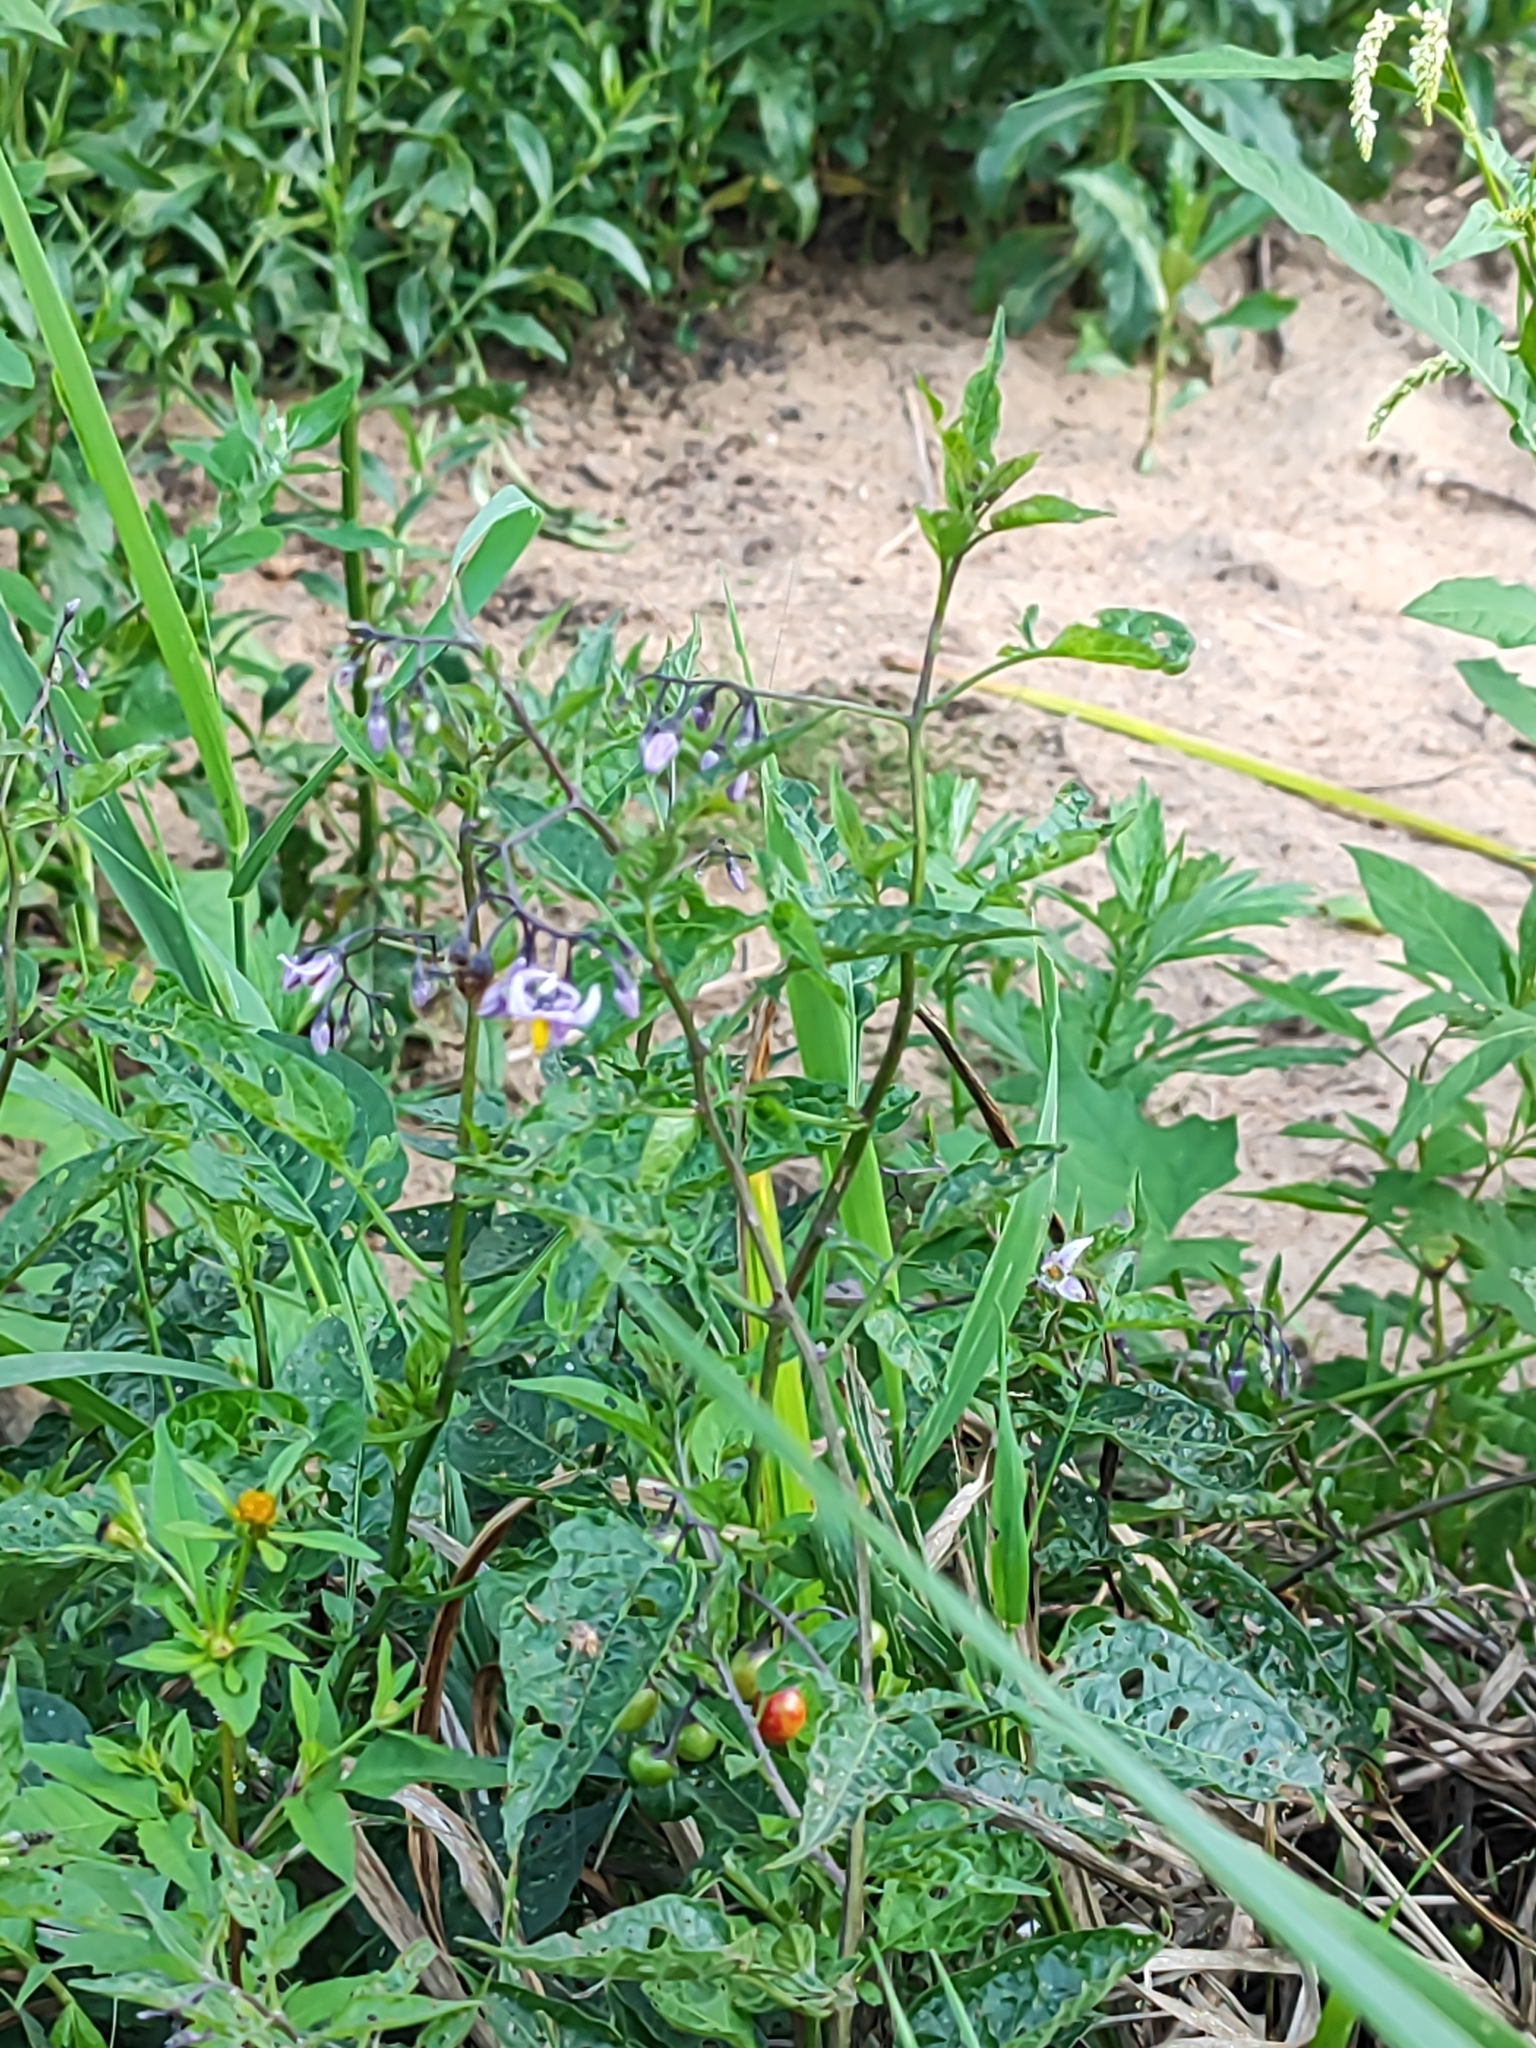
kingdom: Plantae
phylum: Tracheophyta
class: Magnoliopsida
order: Solanales
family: Solanaceae
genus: Solanum
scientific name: Solanum dulcamara
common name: Climbing nightshade
